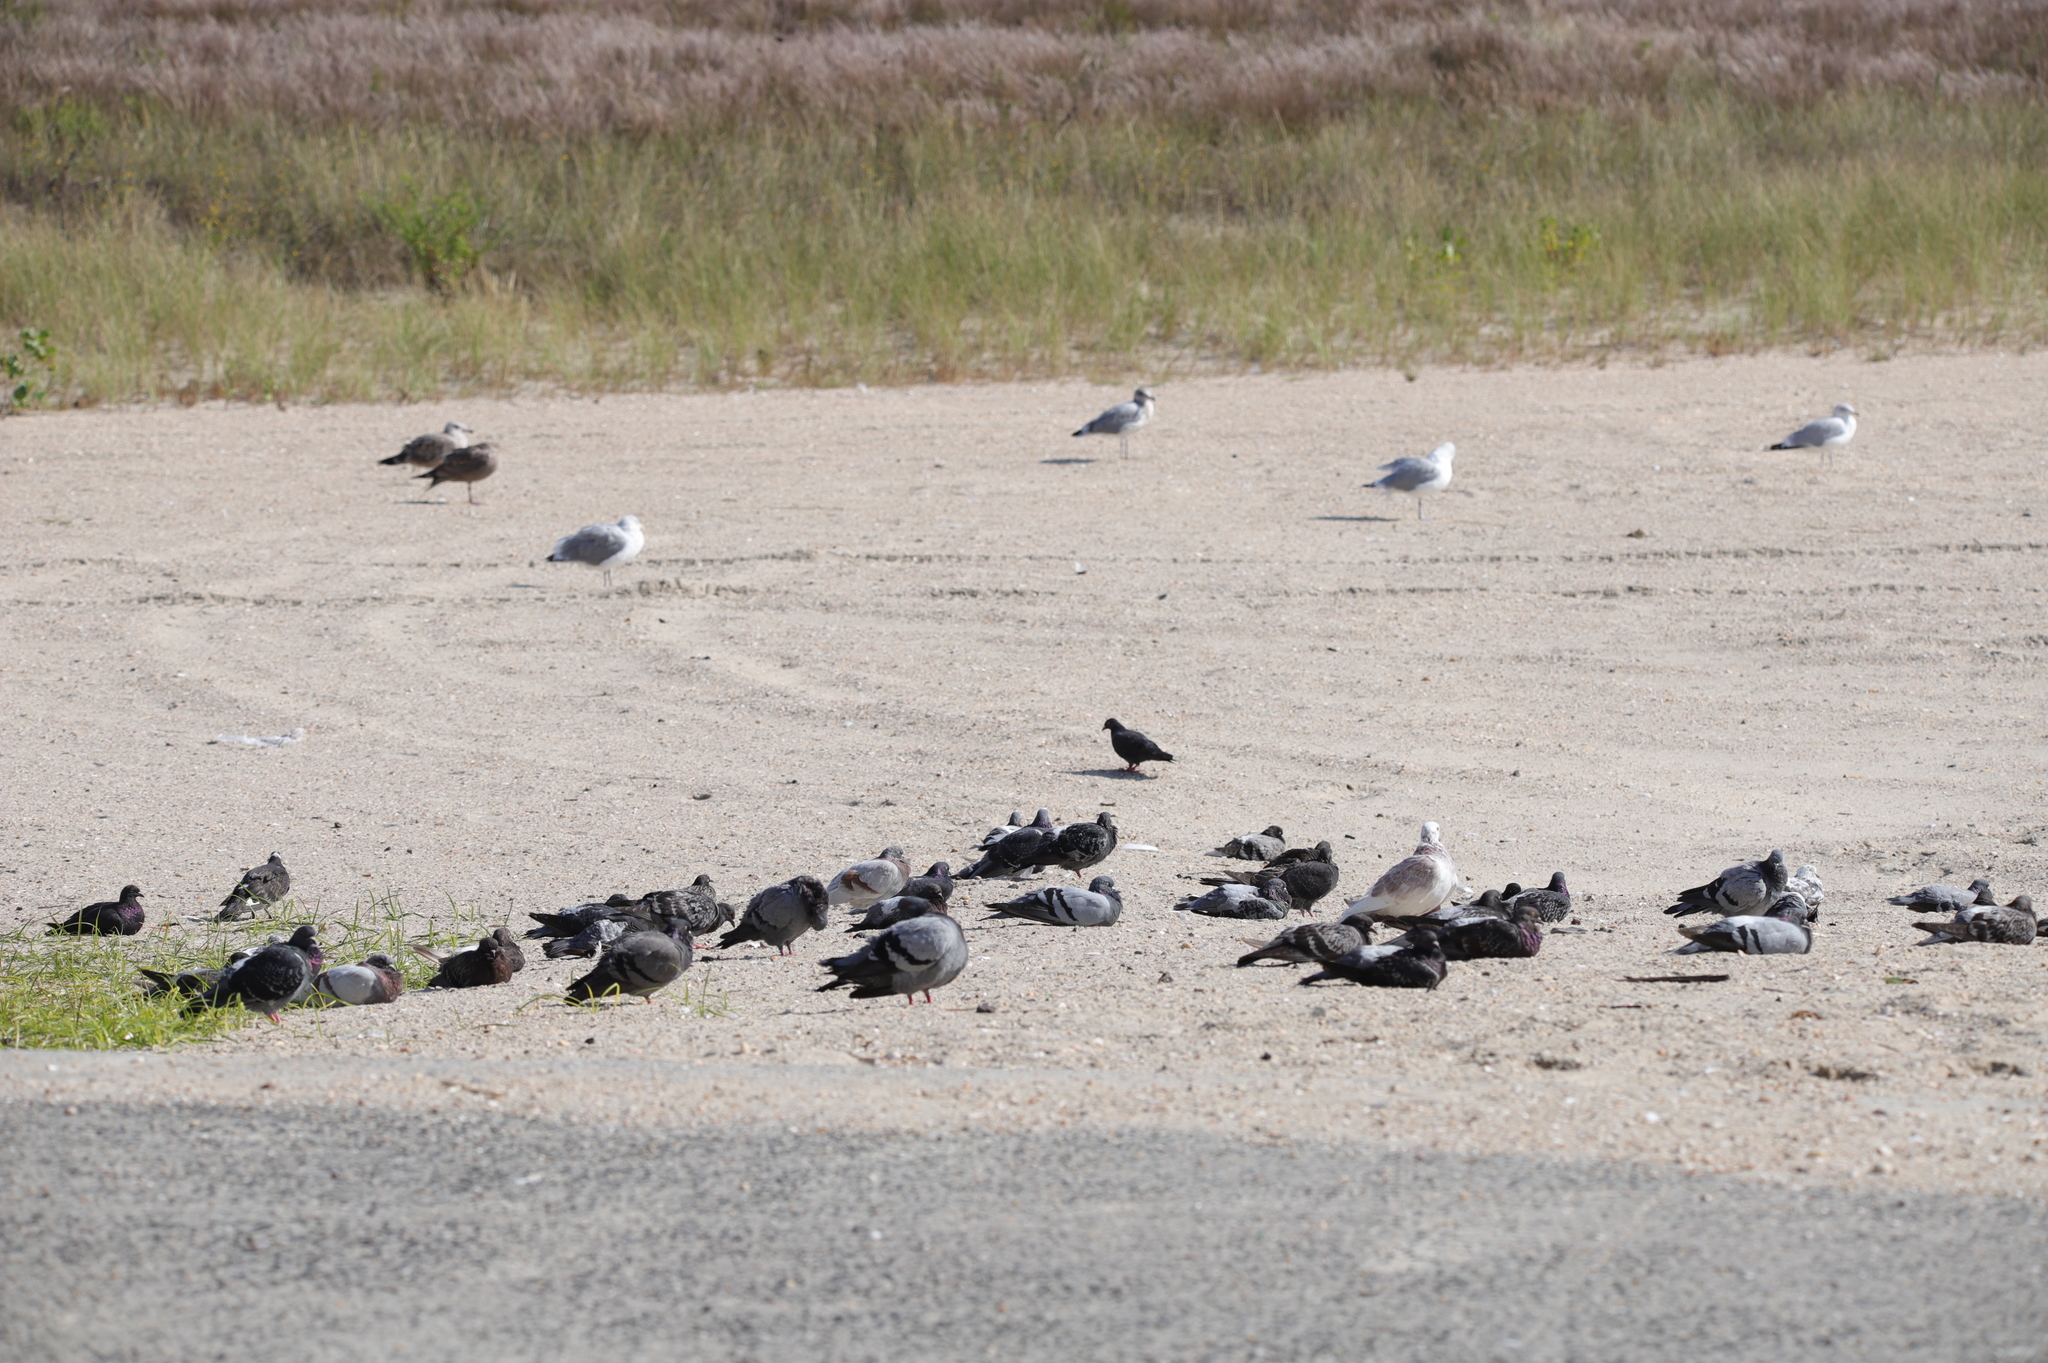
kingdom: Animalia
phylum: Chordata
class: Aves
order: Columbiformes
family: Columbidae
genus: Columba
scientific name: Columba livia
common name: Rock pigeon
